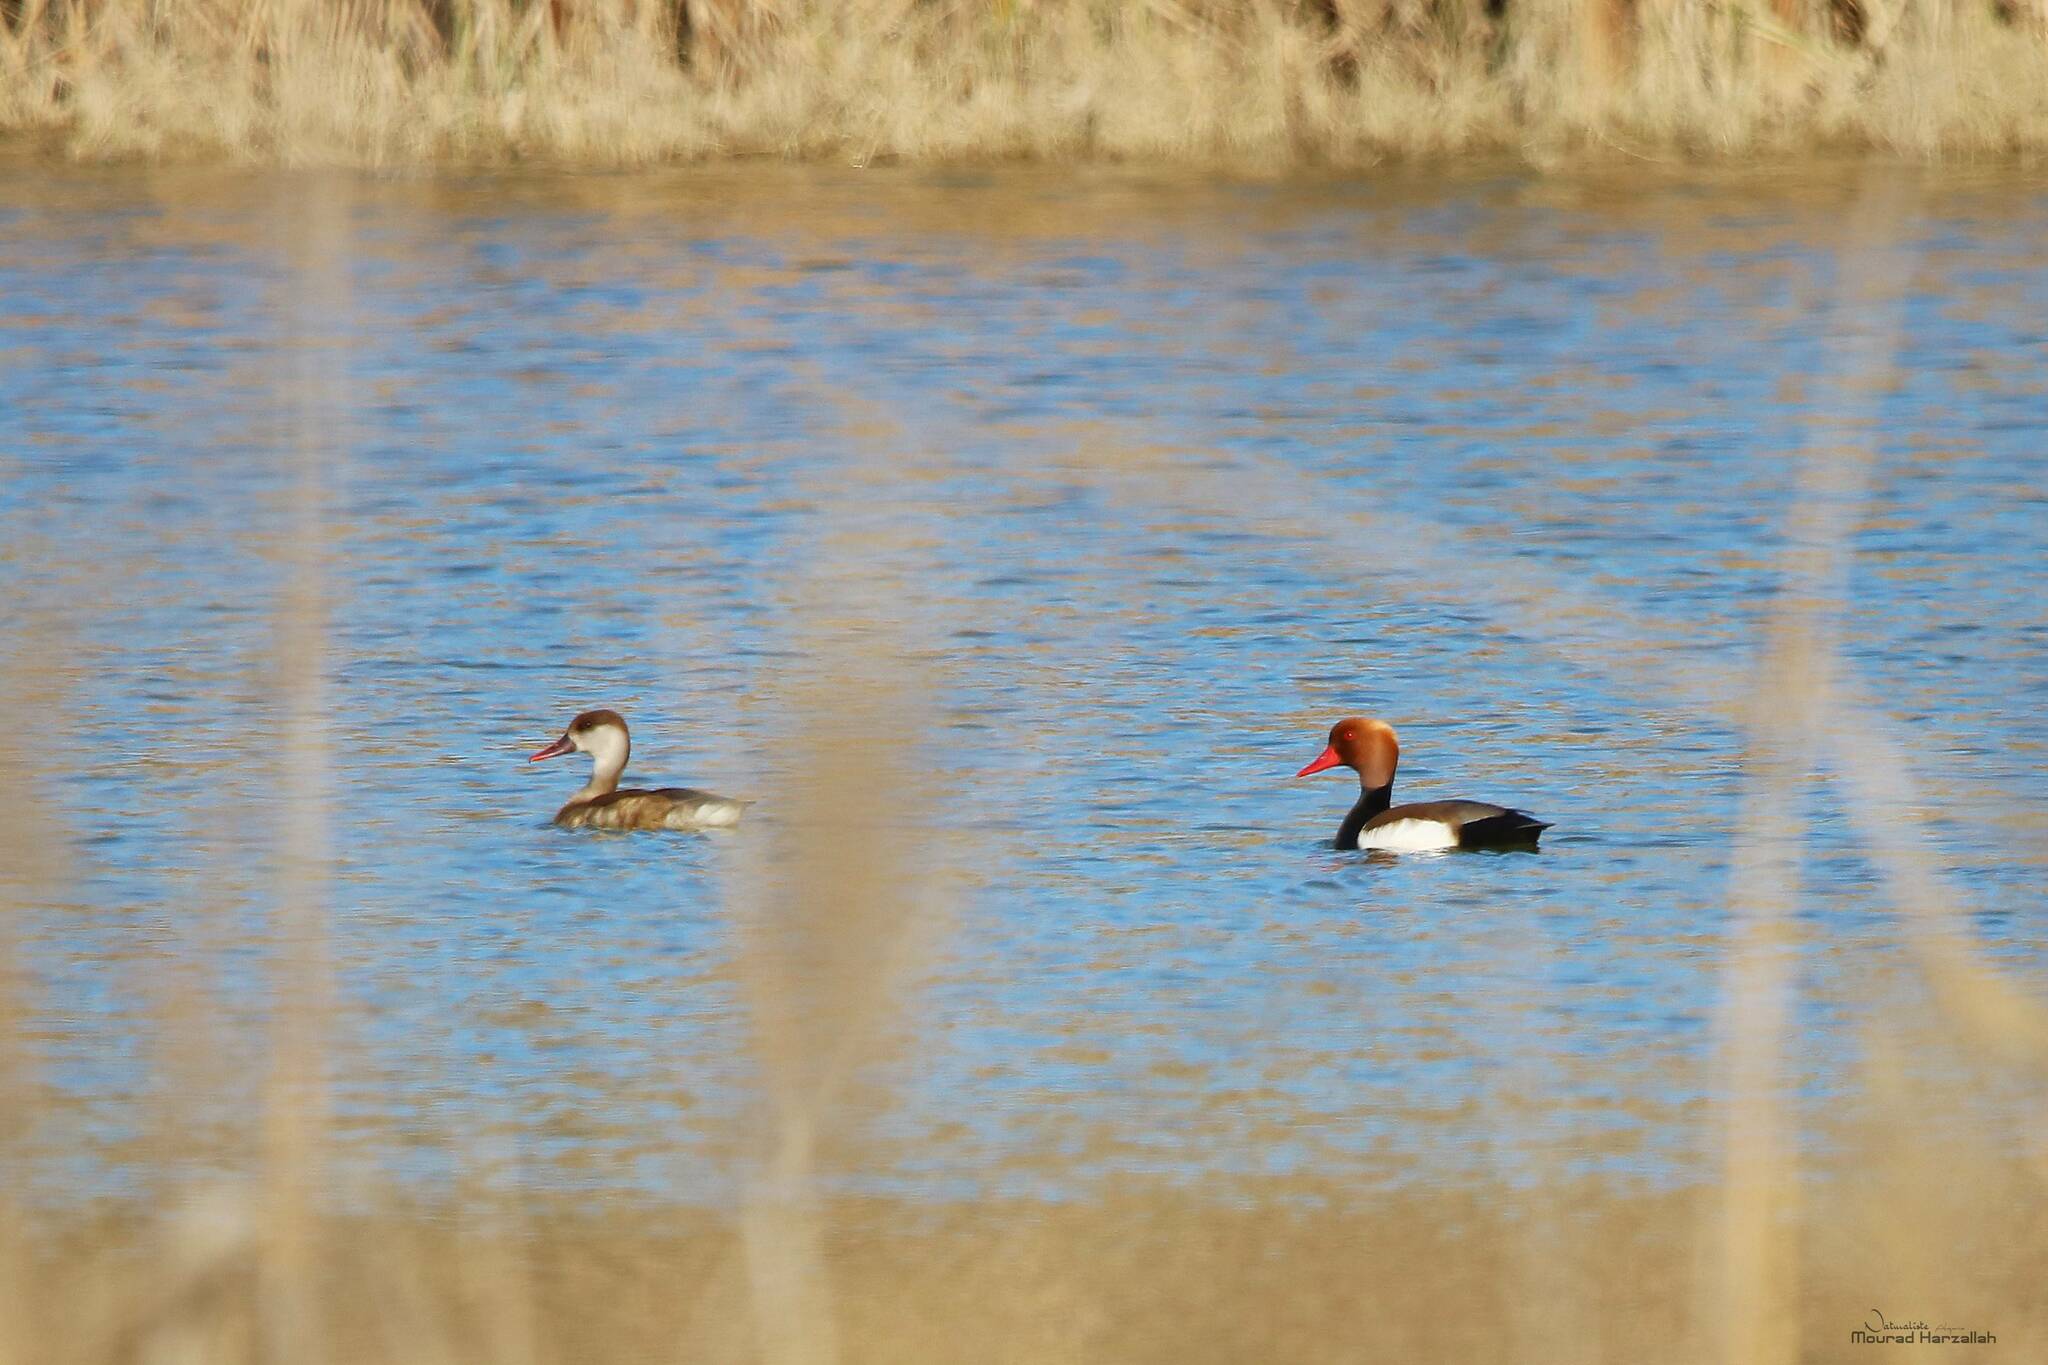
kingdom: Animalia
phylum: Chordata
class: Aves
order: Anseriformes
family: Anatidae
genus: Netta
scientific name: Netta rufina
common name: Red-crested pochard
